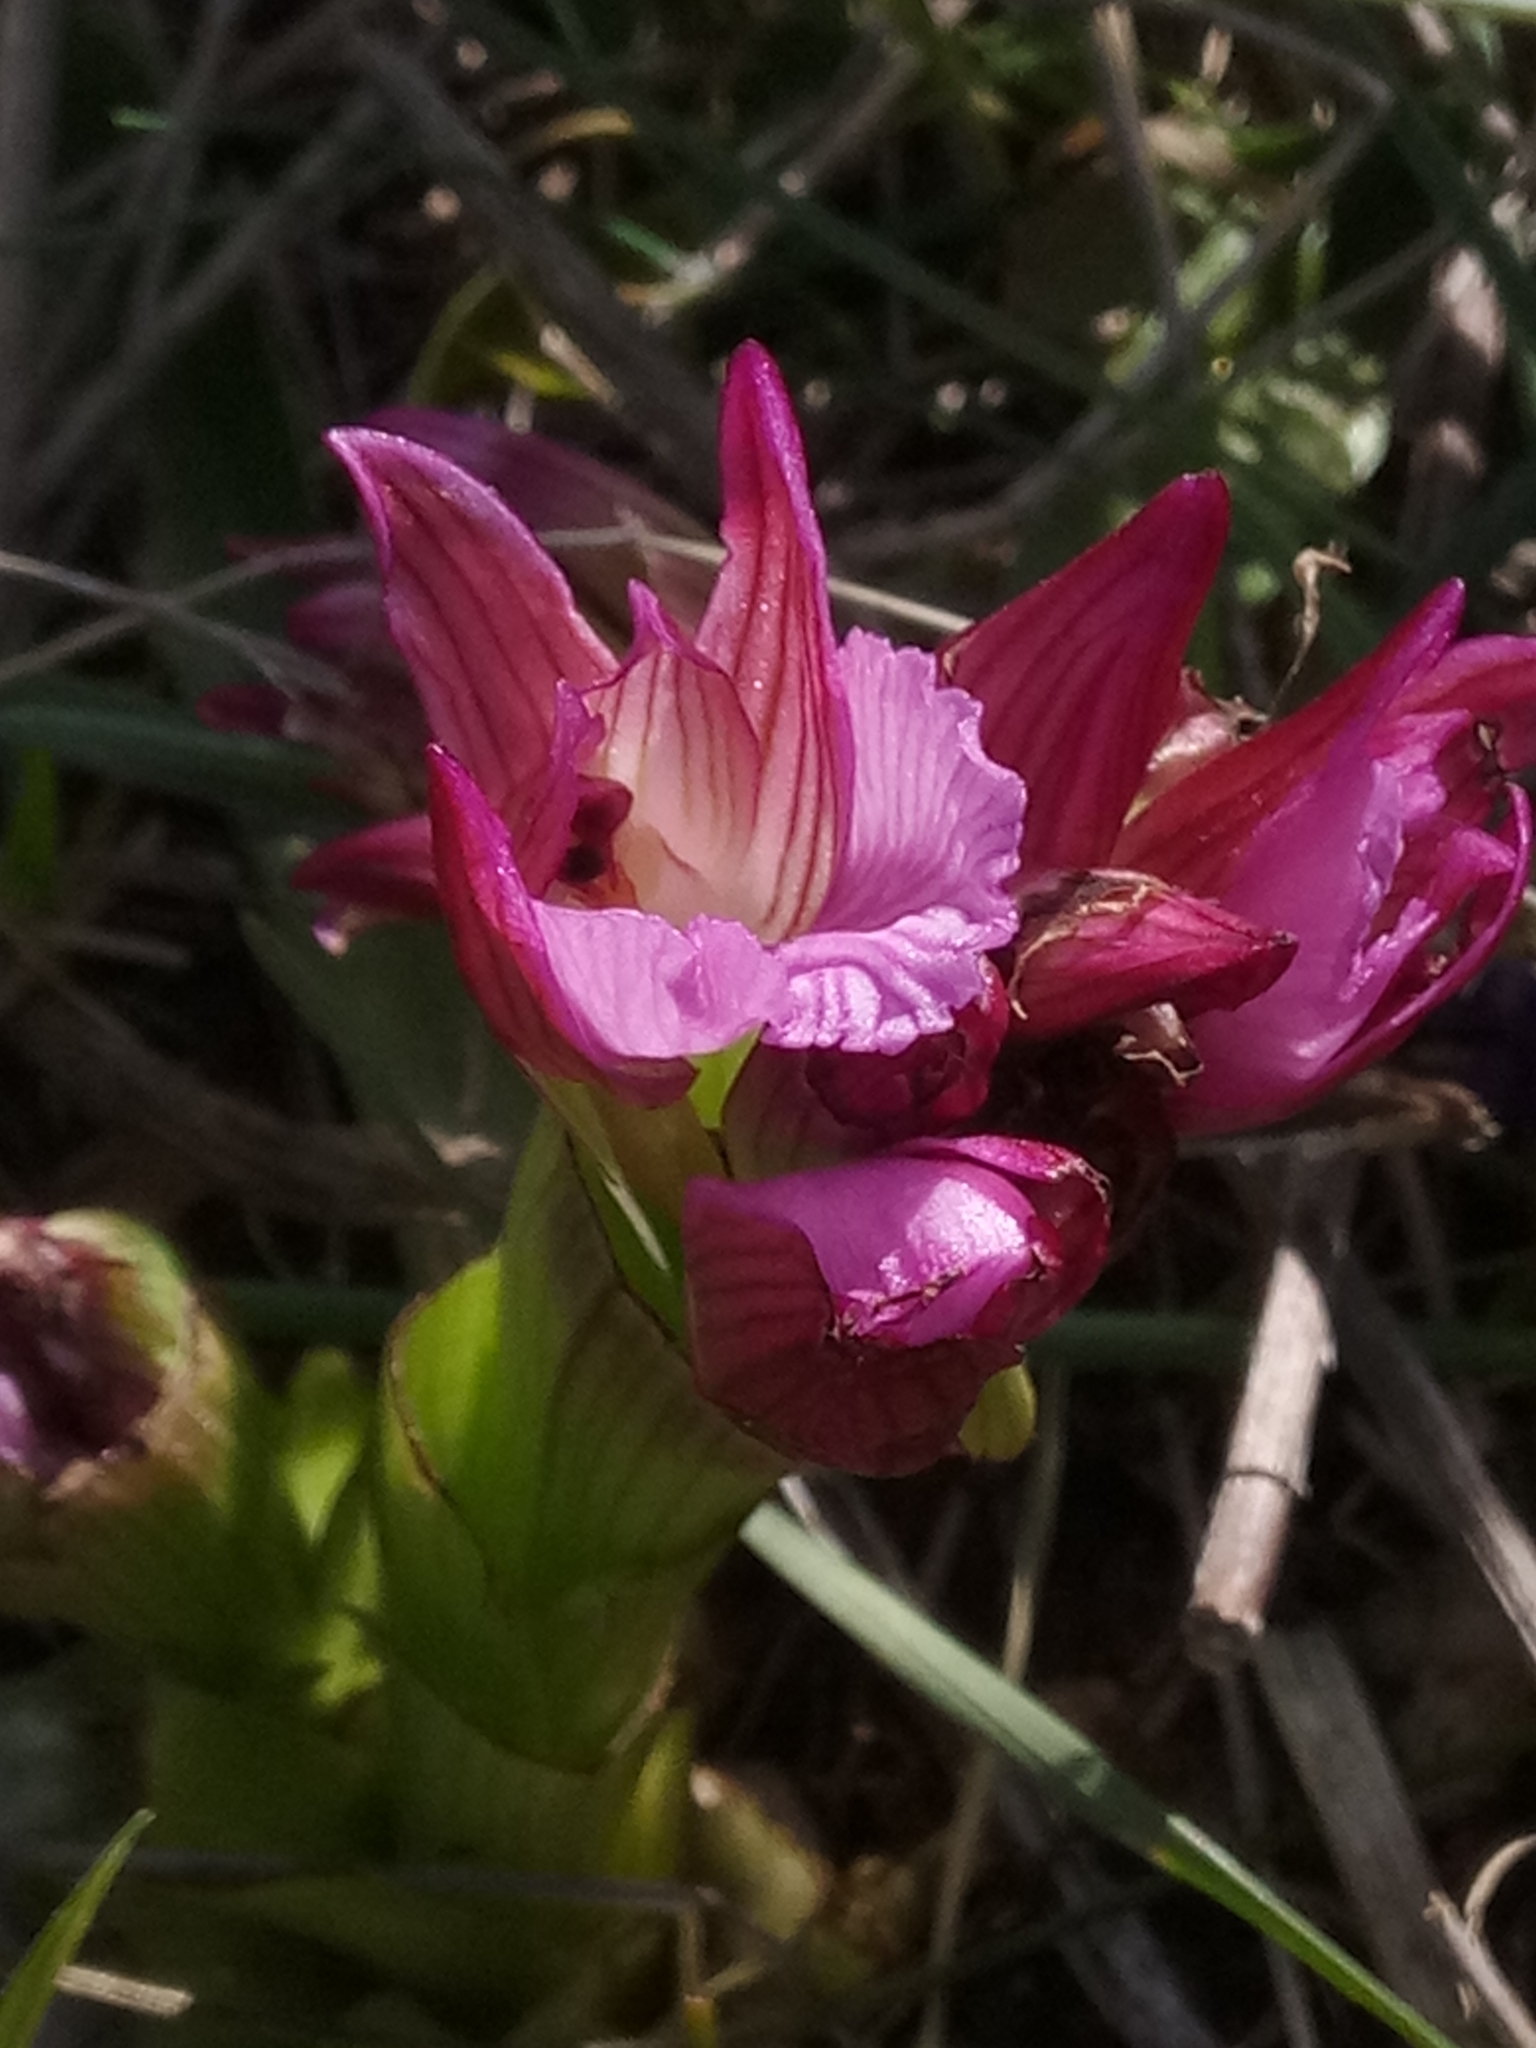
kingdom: Plantae
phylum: Tracheophyta
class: Liliopsida
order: Asparagales
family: Orchidaceae
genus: Anacamptis
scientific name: Anacamptis papilionacea
